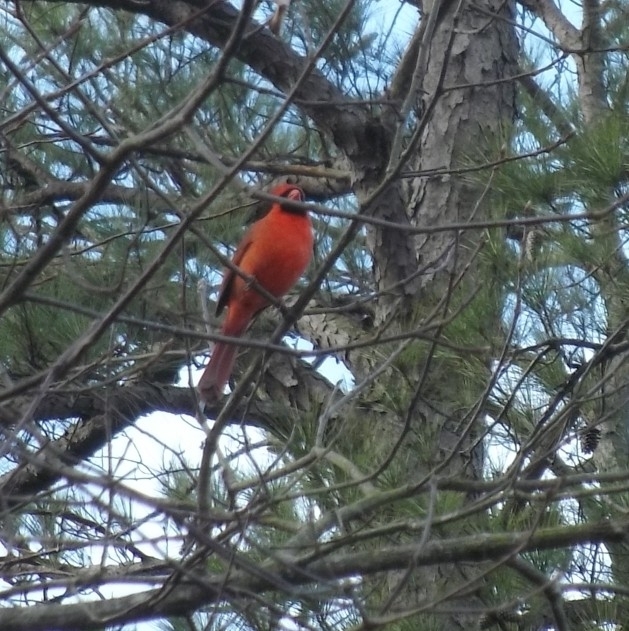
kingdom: Animalia
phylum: Chordata
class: Aves
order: Passeriformes
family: Cardinalidae
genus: Cardinalis
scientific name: Cardinalis cardinalis
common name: Northern cardinal
